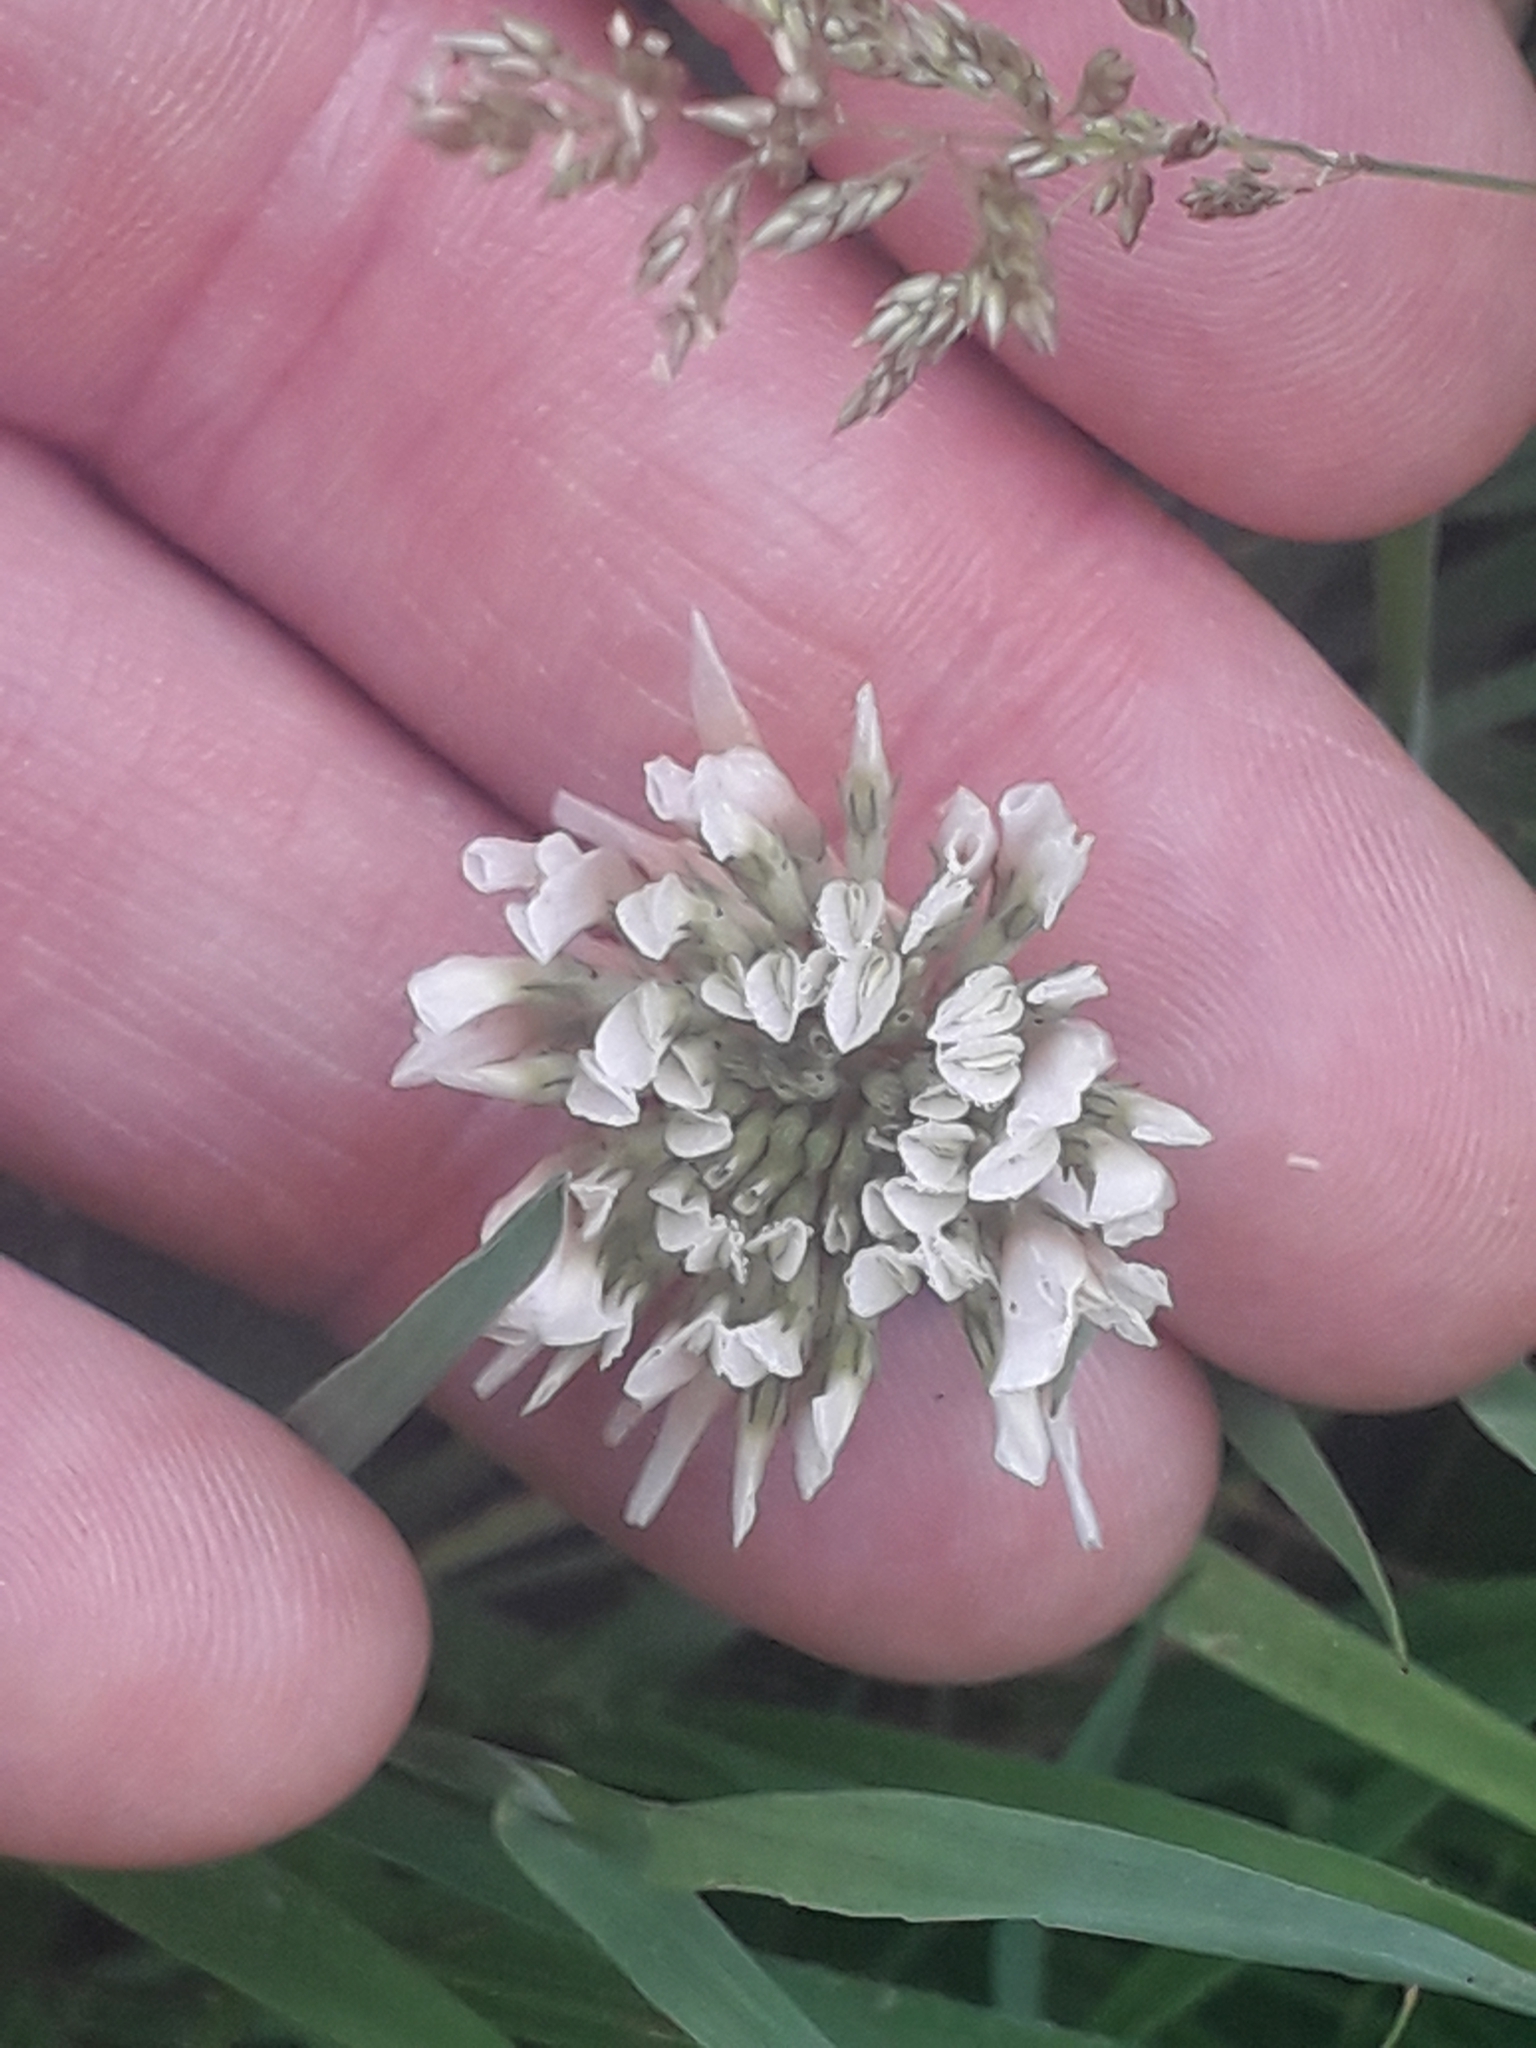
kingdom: Plantae
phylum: Tracheophyta
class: Magnoliopsida
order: Fabales
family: Fabaceae
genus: Trifolium
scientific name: Trifolium repens
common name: White clover
